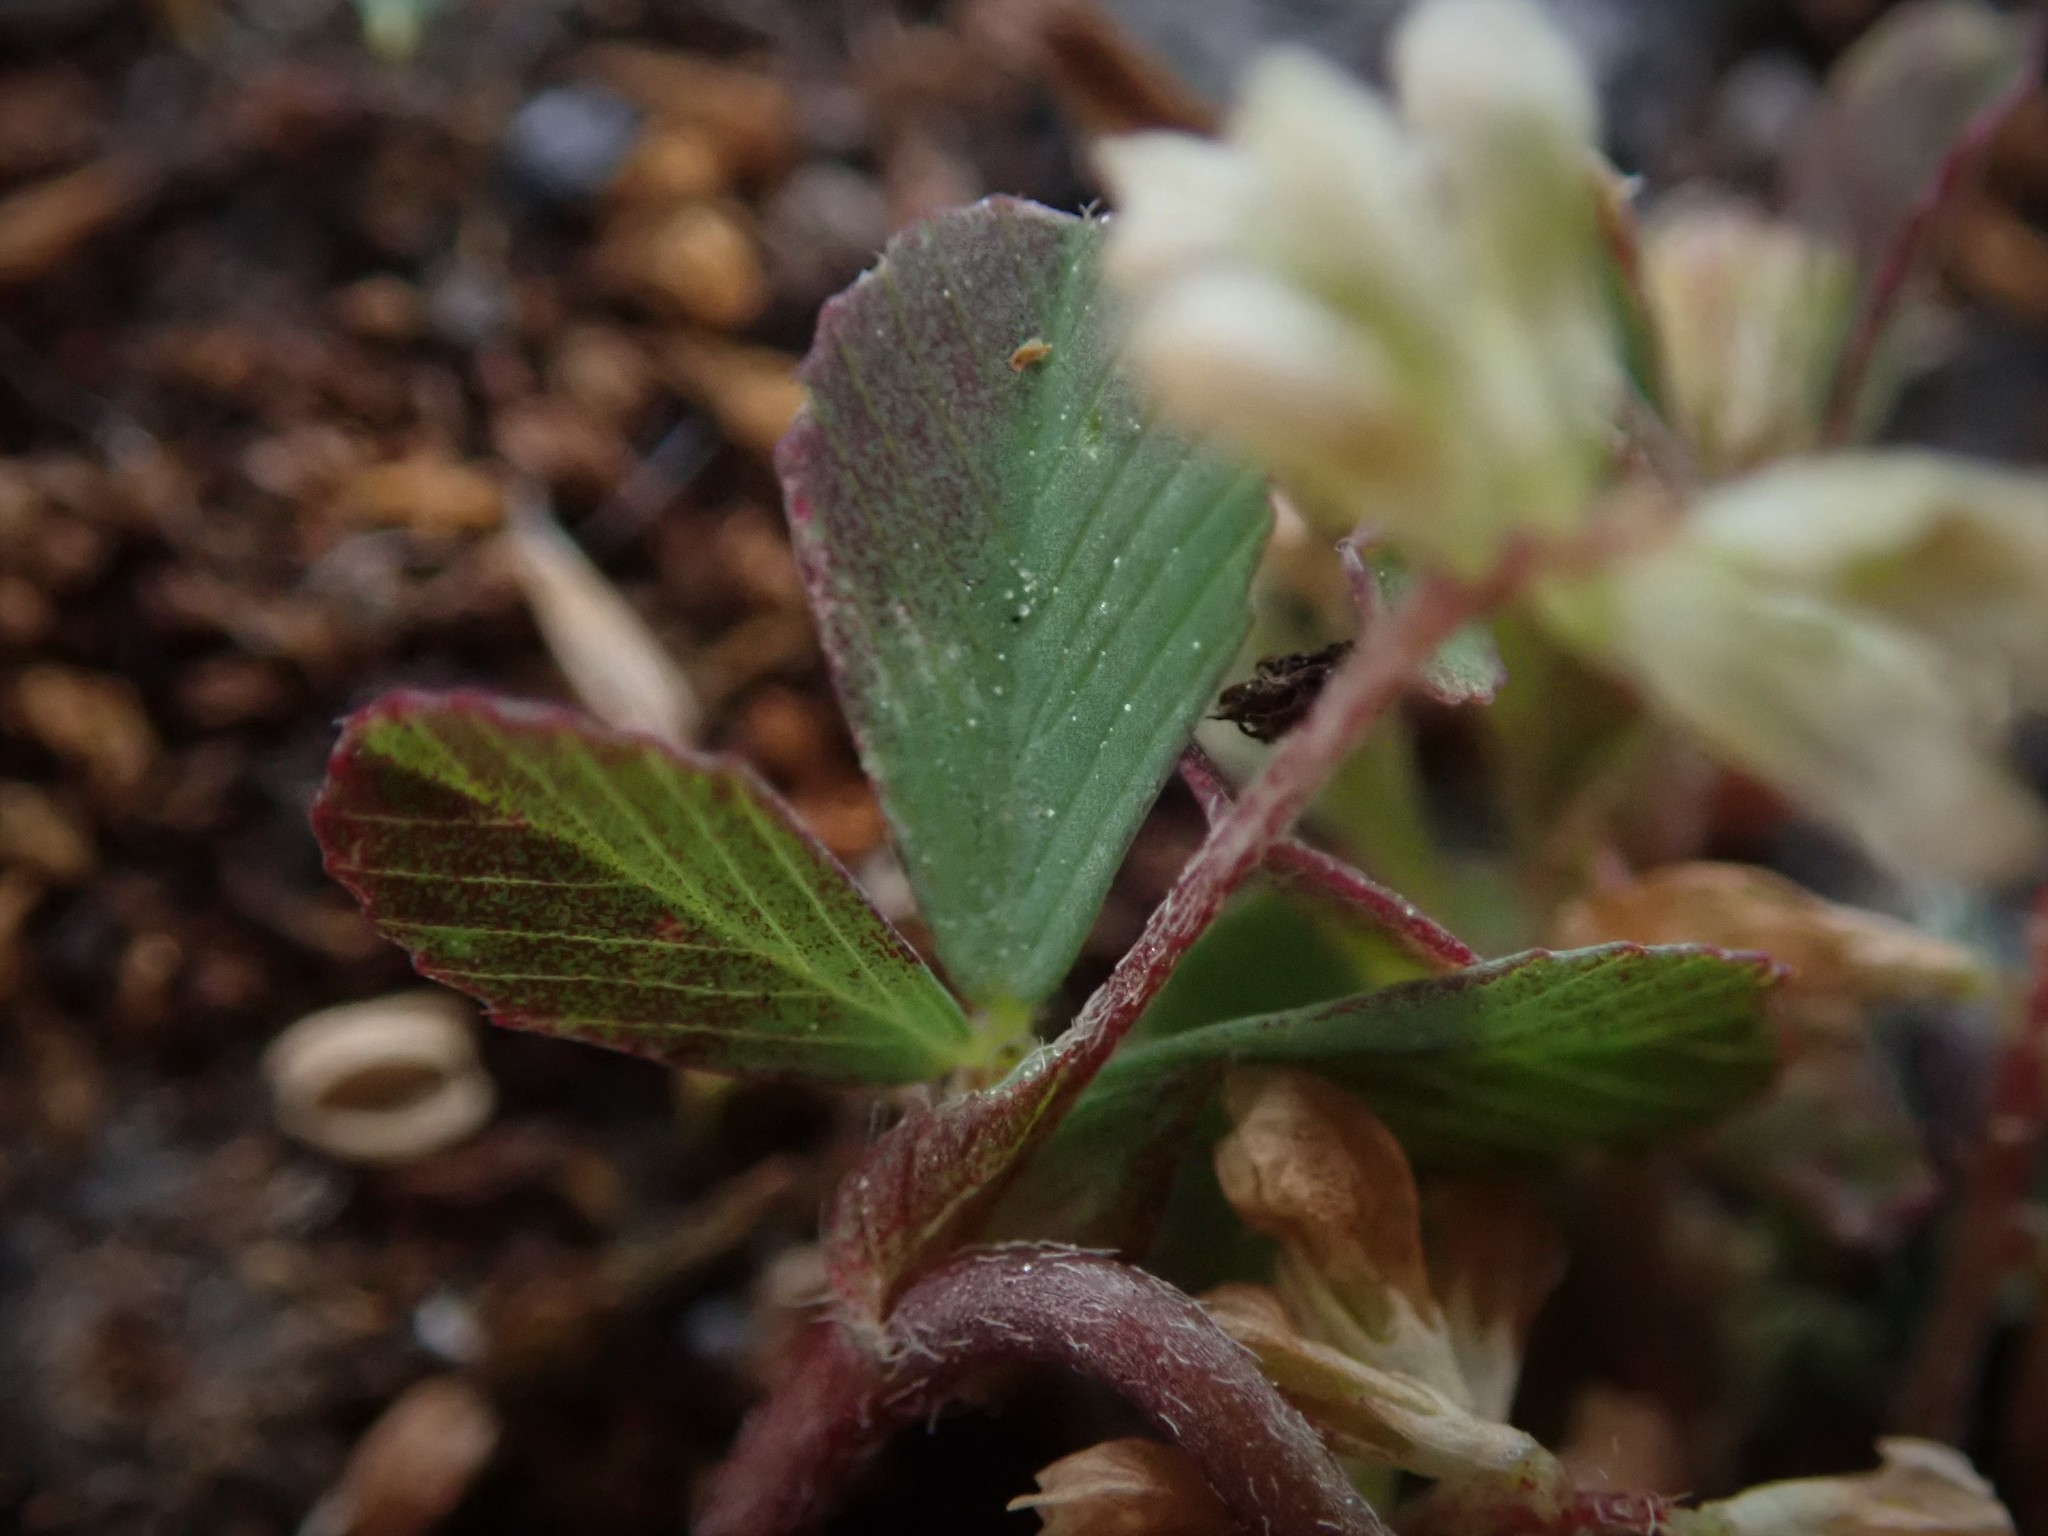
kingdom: Plantae
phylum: Tracheophyta
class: Magnoliopsida
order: Fabales
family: Fabaceae
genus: Trifolium
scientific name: Trifolium micranthum
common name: Slender trefoil
